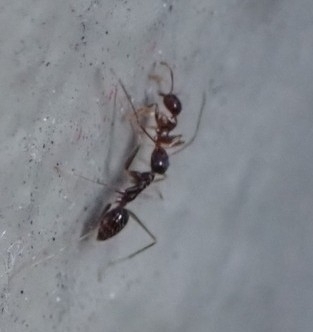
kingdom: Animalia
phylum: Arthropoda
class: Insecta
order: Hymenoptera
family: Formicidae
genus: Pheidole
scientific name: Pheidole megacephala
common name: Bigheaded ant
